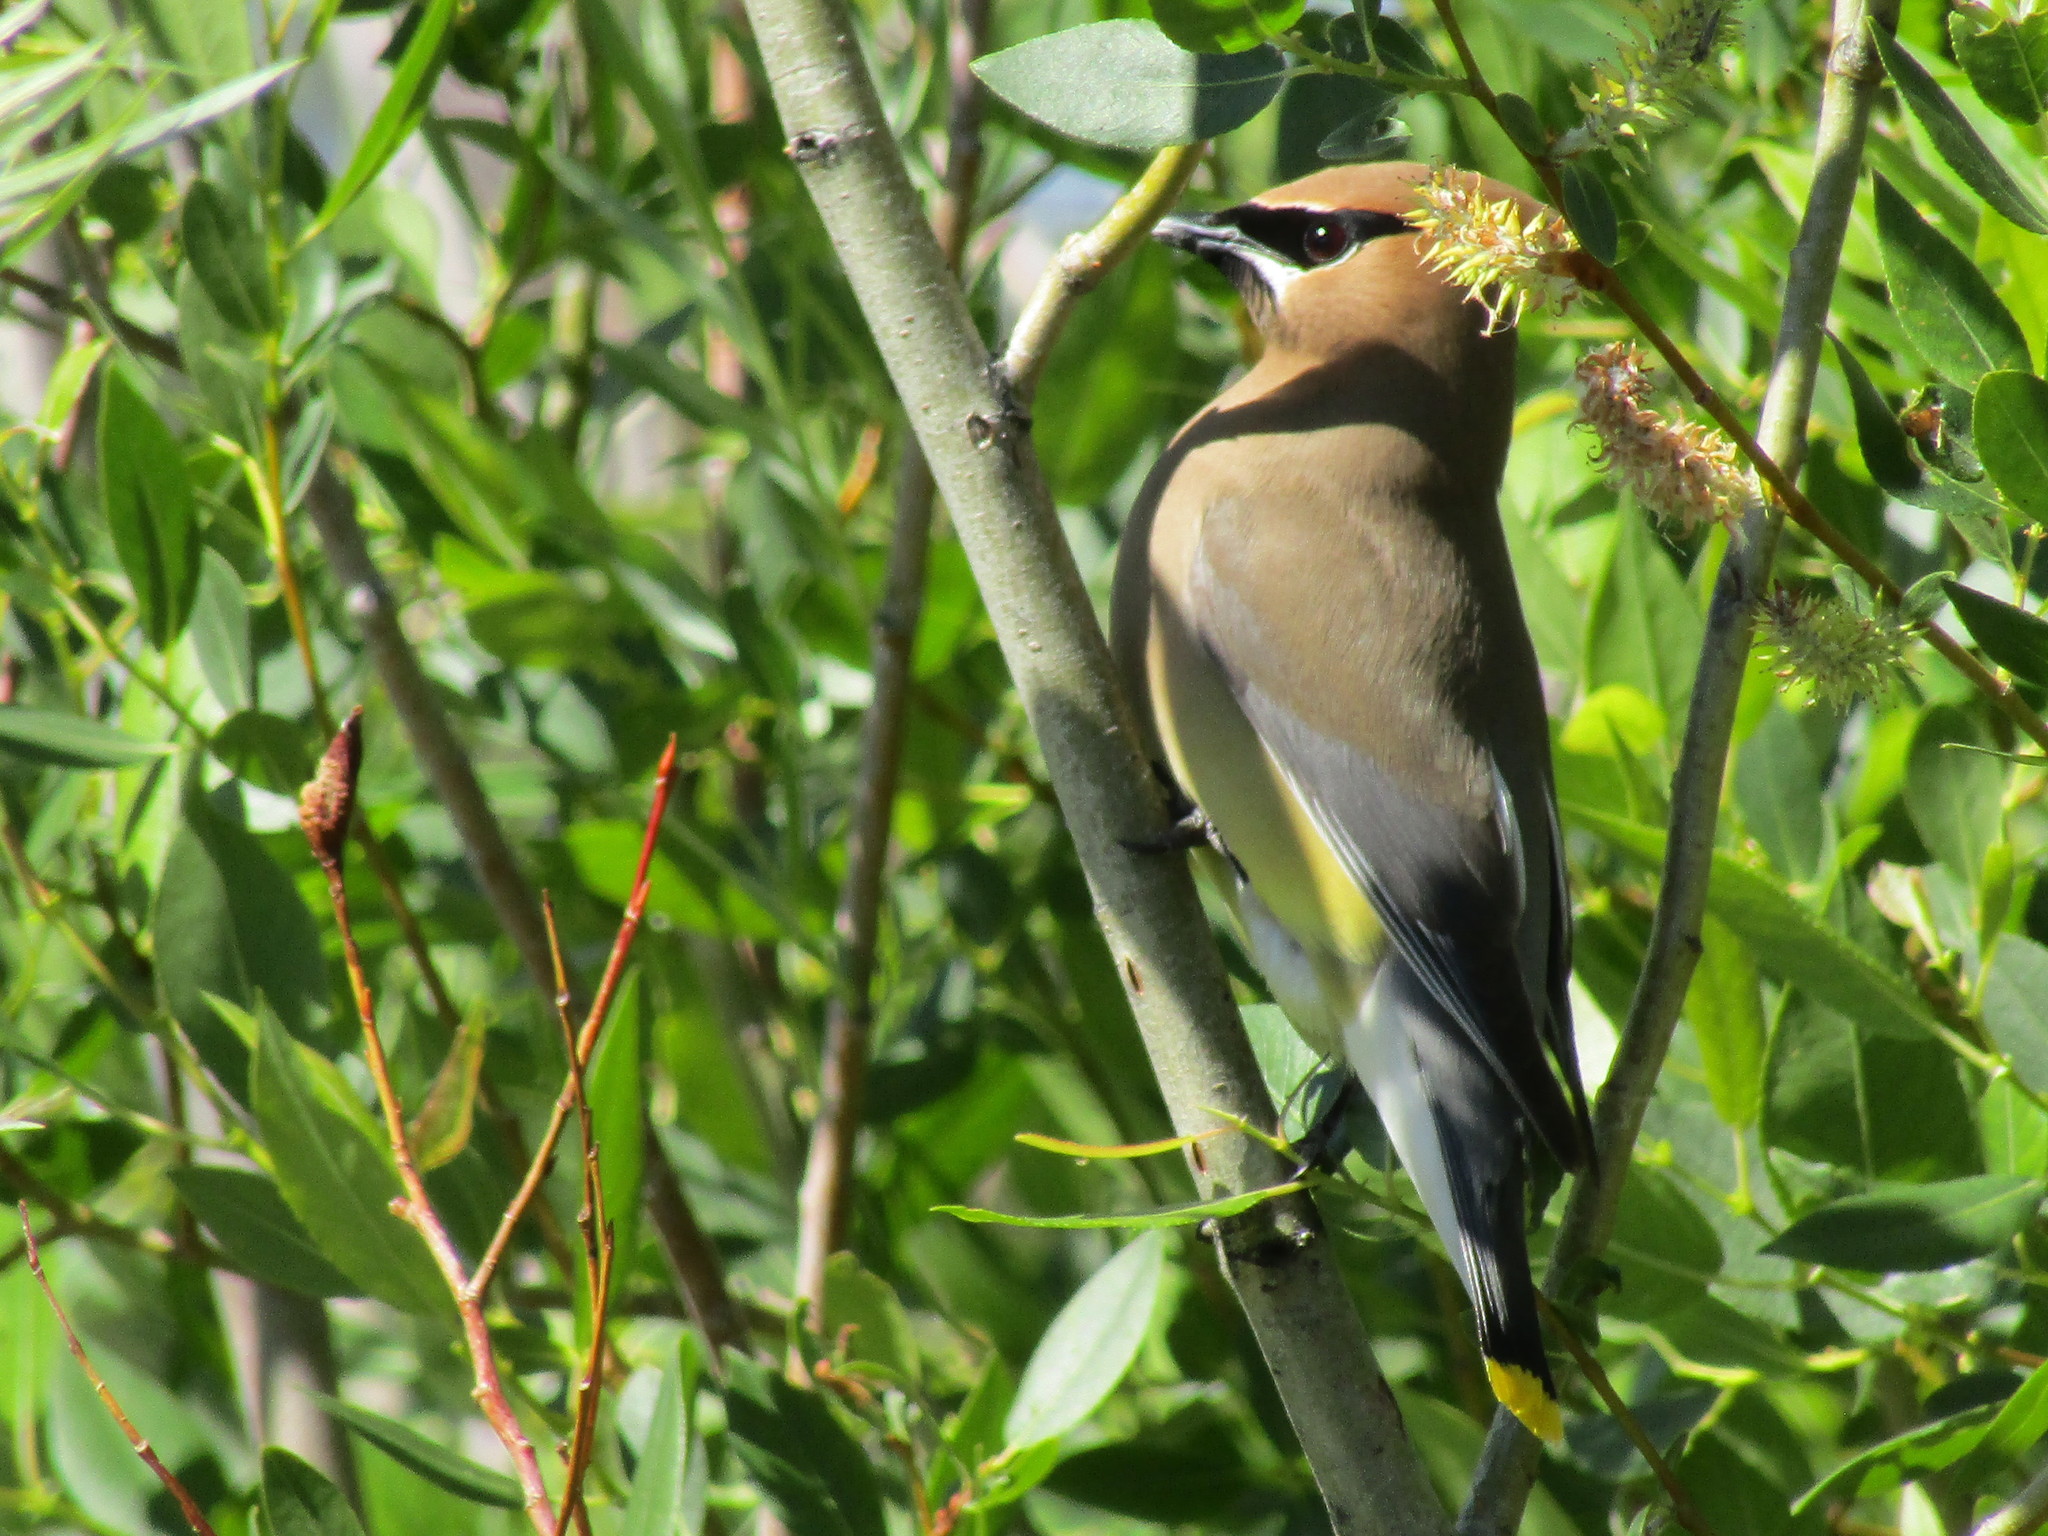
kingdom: Animalia
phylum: Chordata
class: Aves
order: Passeriformes
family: Bombycillidae
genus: Bombycilla
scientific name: Bombycilla cedrorum
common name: Cedar waxwing
